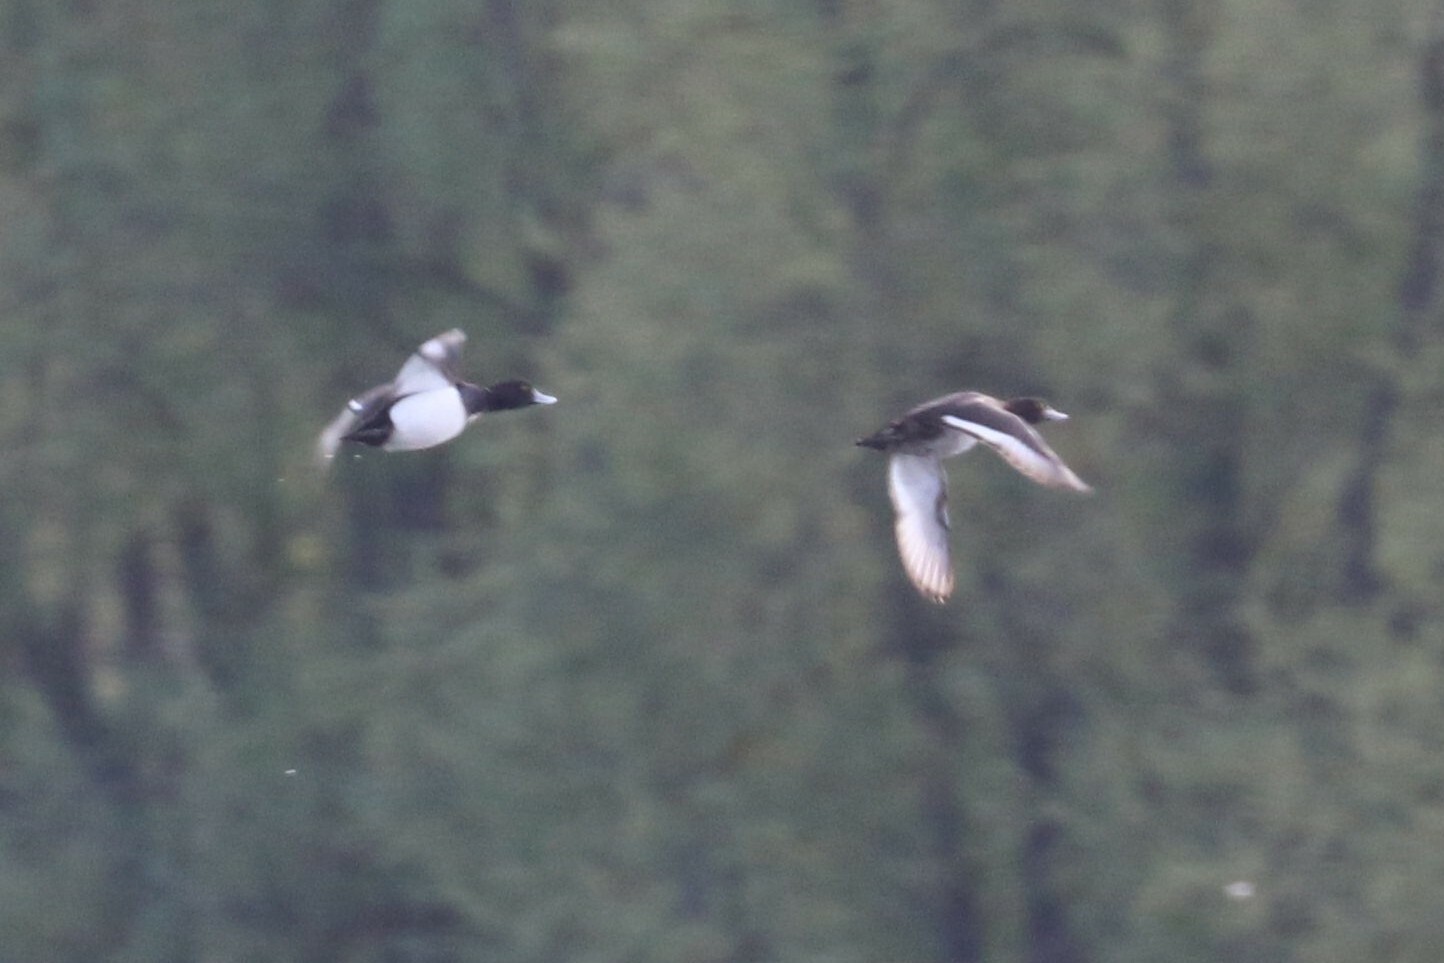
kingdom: Animalia
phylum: Chordata
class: Aves
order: Anseriformes
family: Anatidae
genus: Aythya
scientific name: Aythya fuligula
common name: Tufted duck
